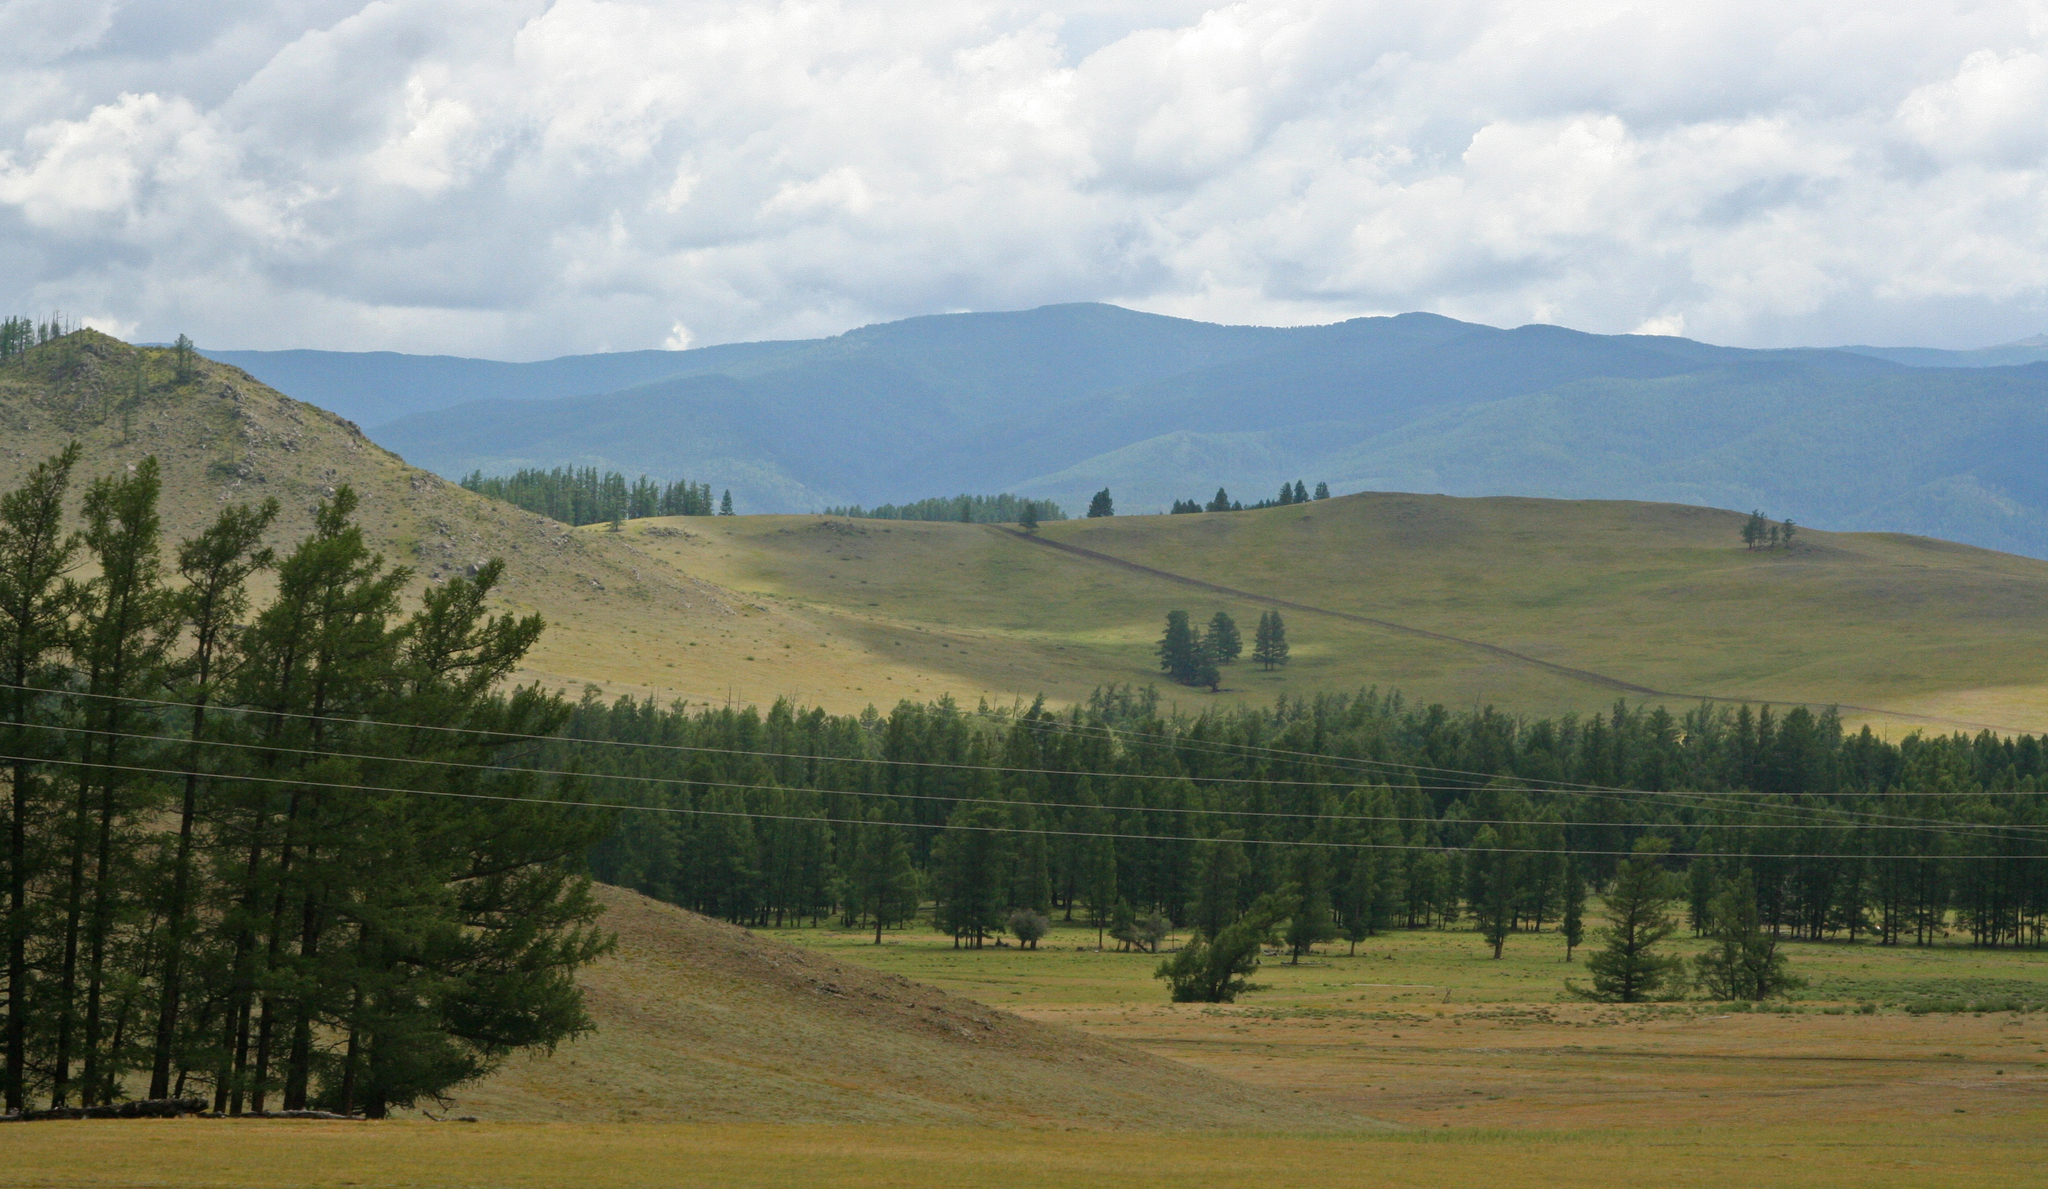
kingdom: Plantae
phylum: Tracheophyta
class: Pinopsida
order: Pinales
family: Pinaceae
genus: Larix
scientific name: Larix sibirica
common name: Siberian larch
